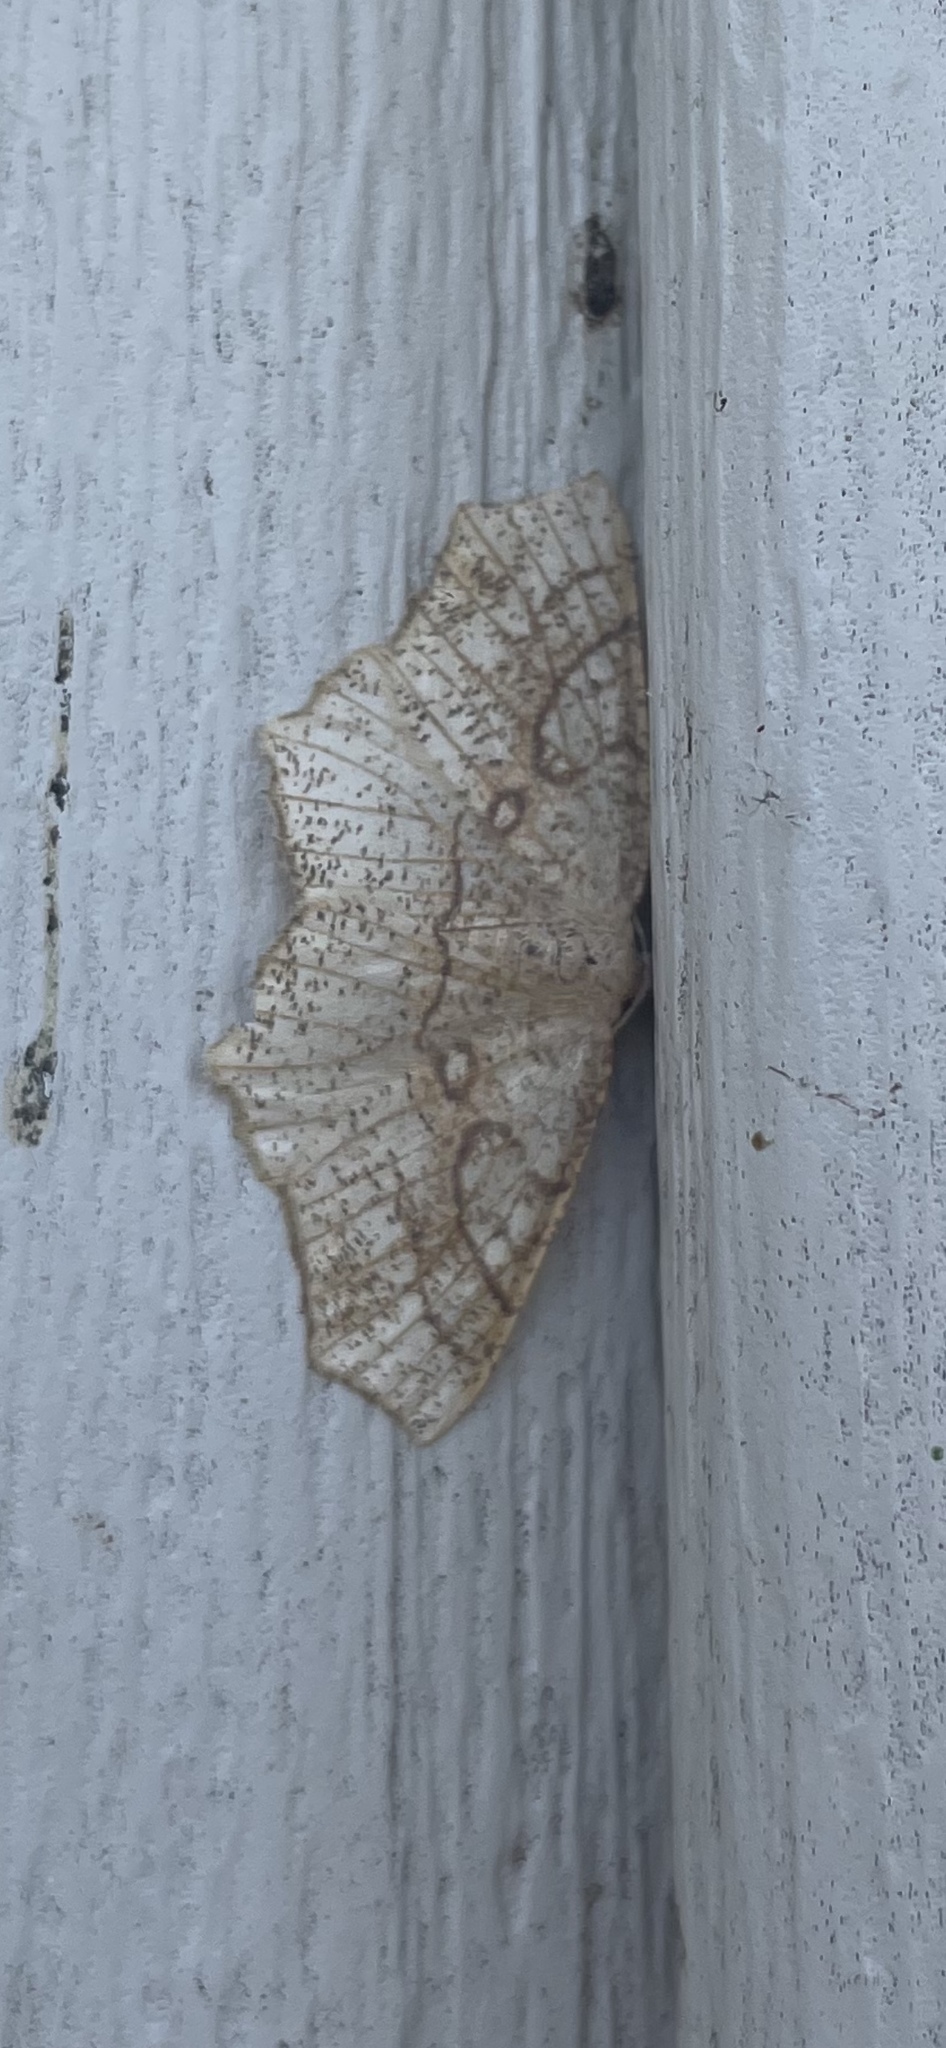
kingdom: Animalia
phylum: Arthropoda
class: Insecta
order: Lepidoptera
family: Geometridae
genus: Besma
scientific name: Besma quercivoraria
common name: Oak besma
